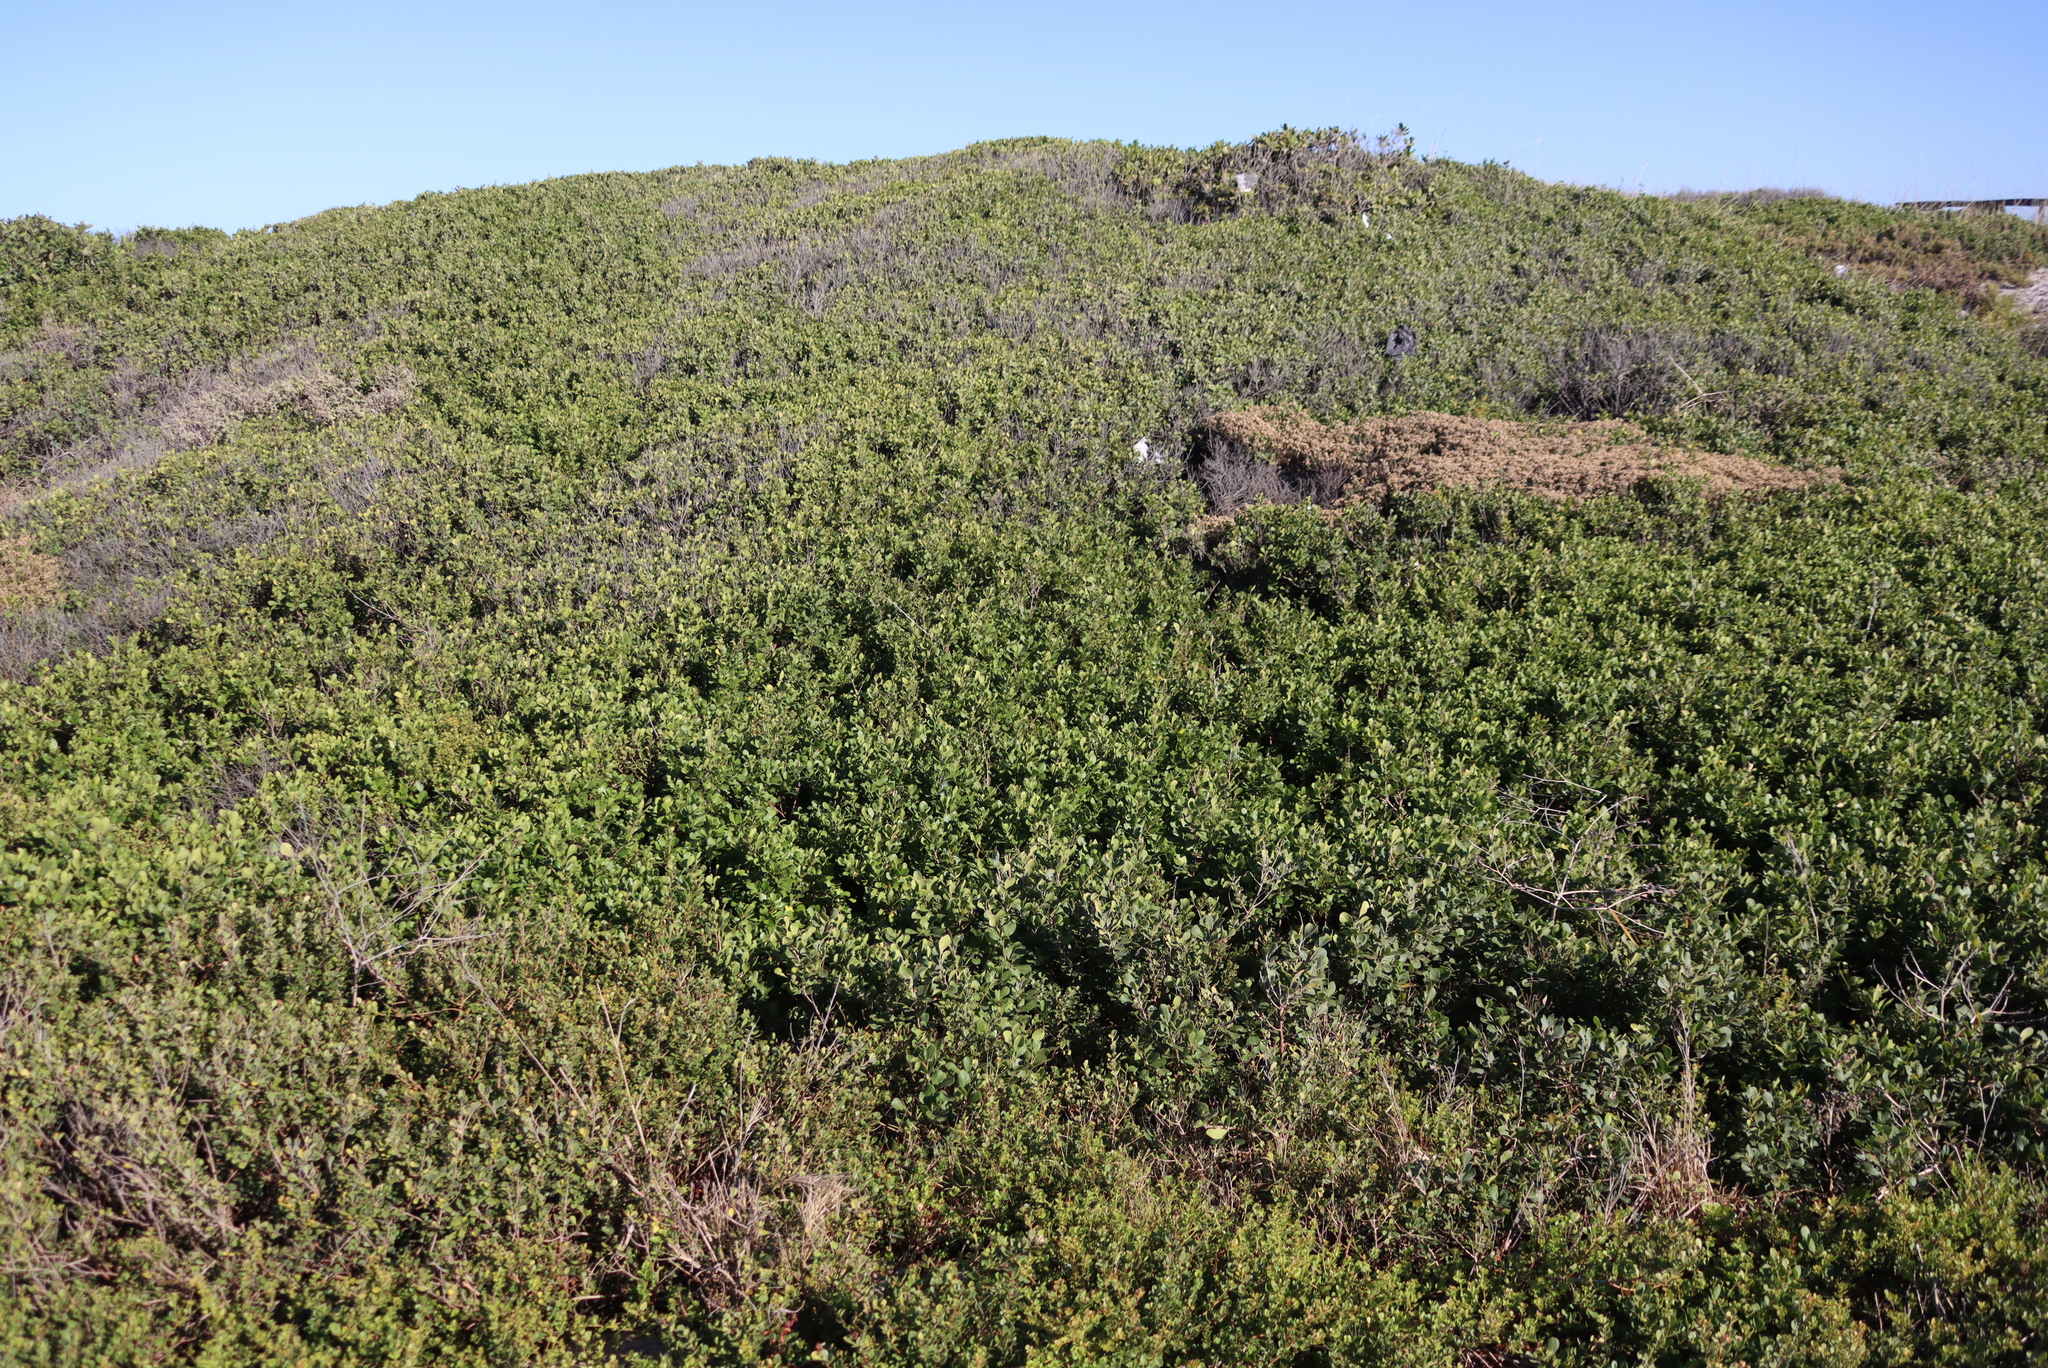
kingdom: Plantae
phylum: Tracheophyta
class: Magnoliopsida
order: Sapindales
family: Anacardiaceae
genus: Searsia
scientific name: Searsia crenata
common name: Crowberry
